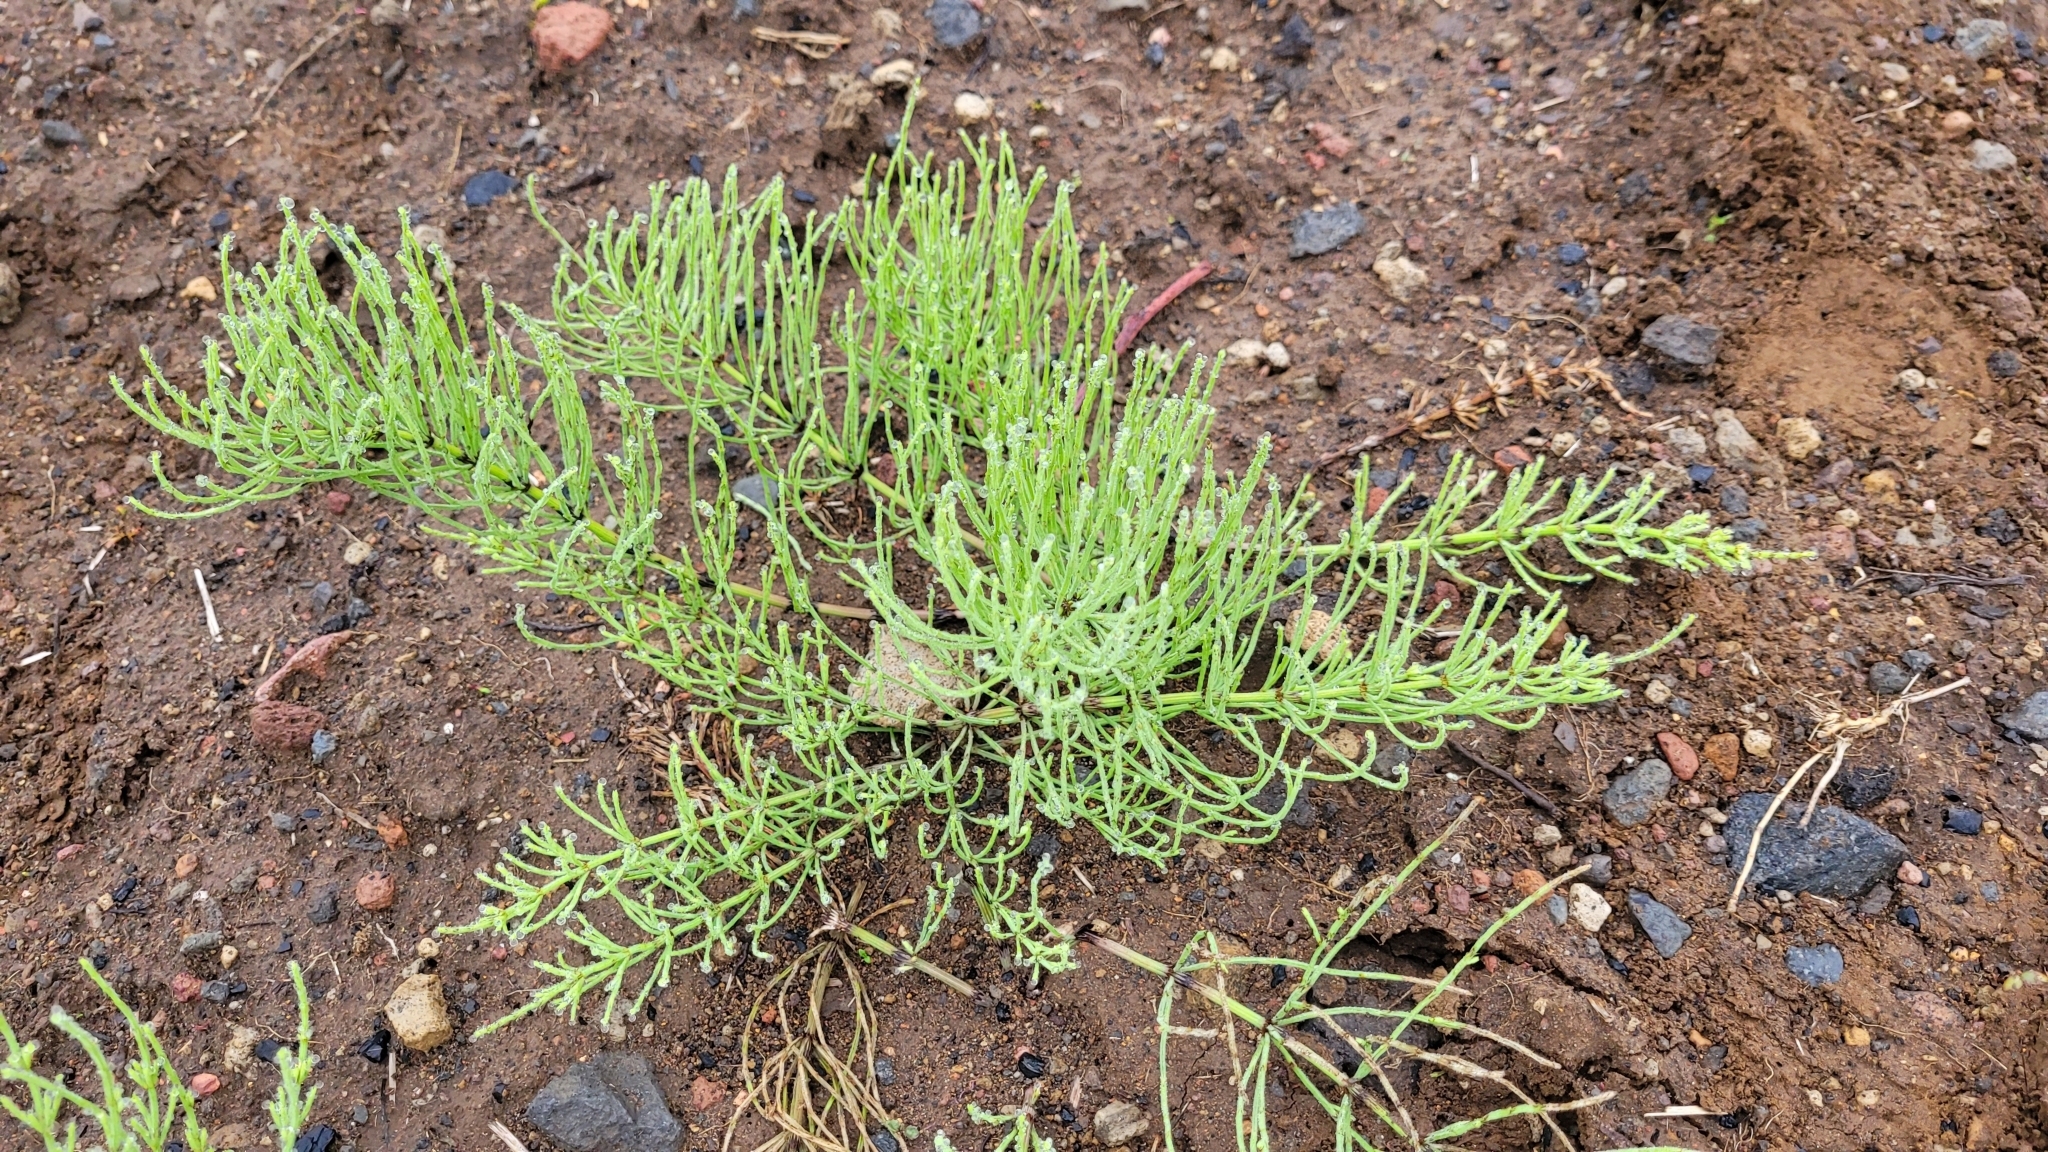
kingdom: Plantae
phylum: Tracheophyta
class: Polypodiopsida
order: Equisetales
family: Equisetaceae
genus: Equisetum
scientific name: Equisetum arvense
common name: Field horsetail
